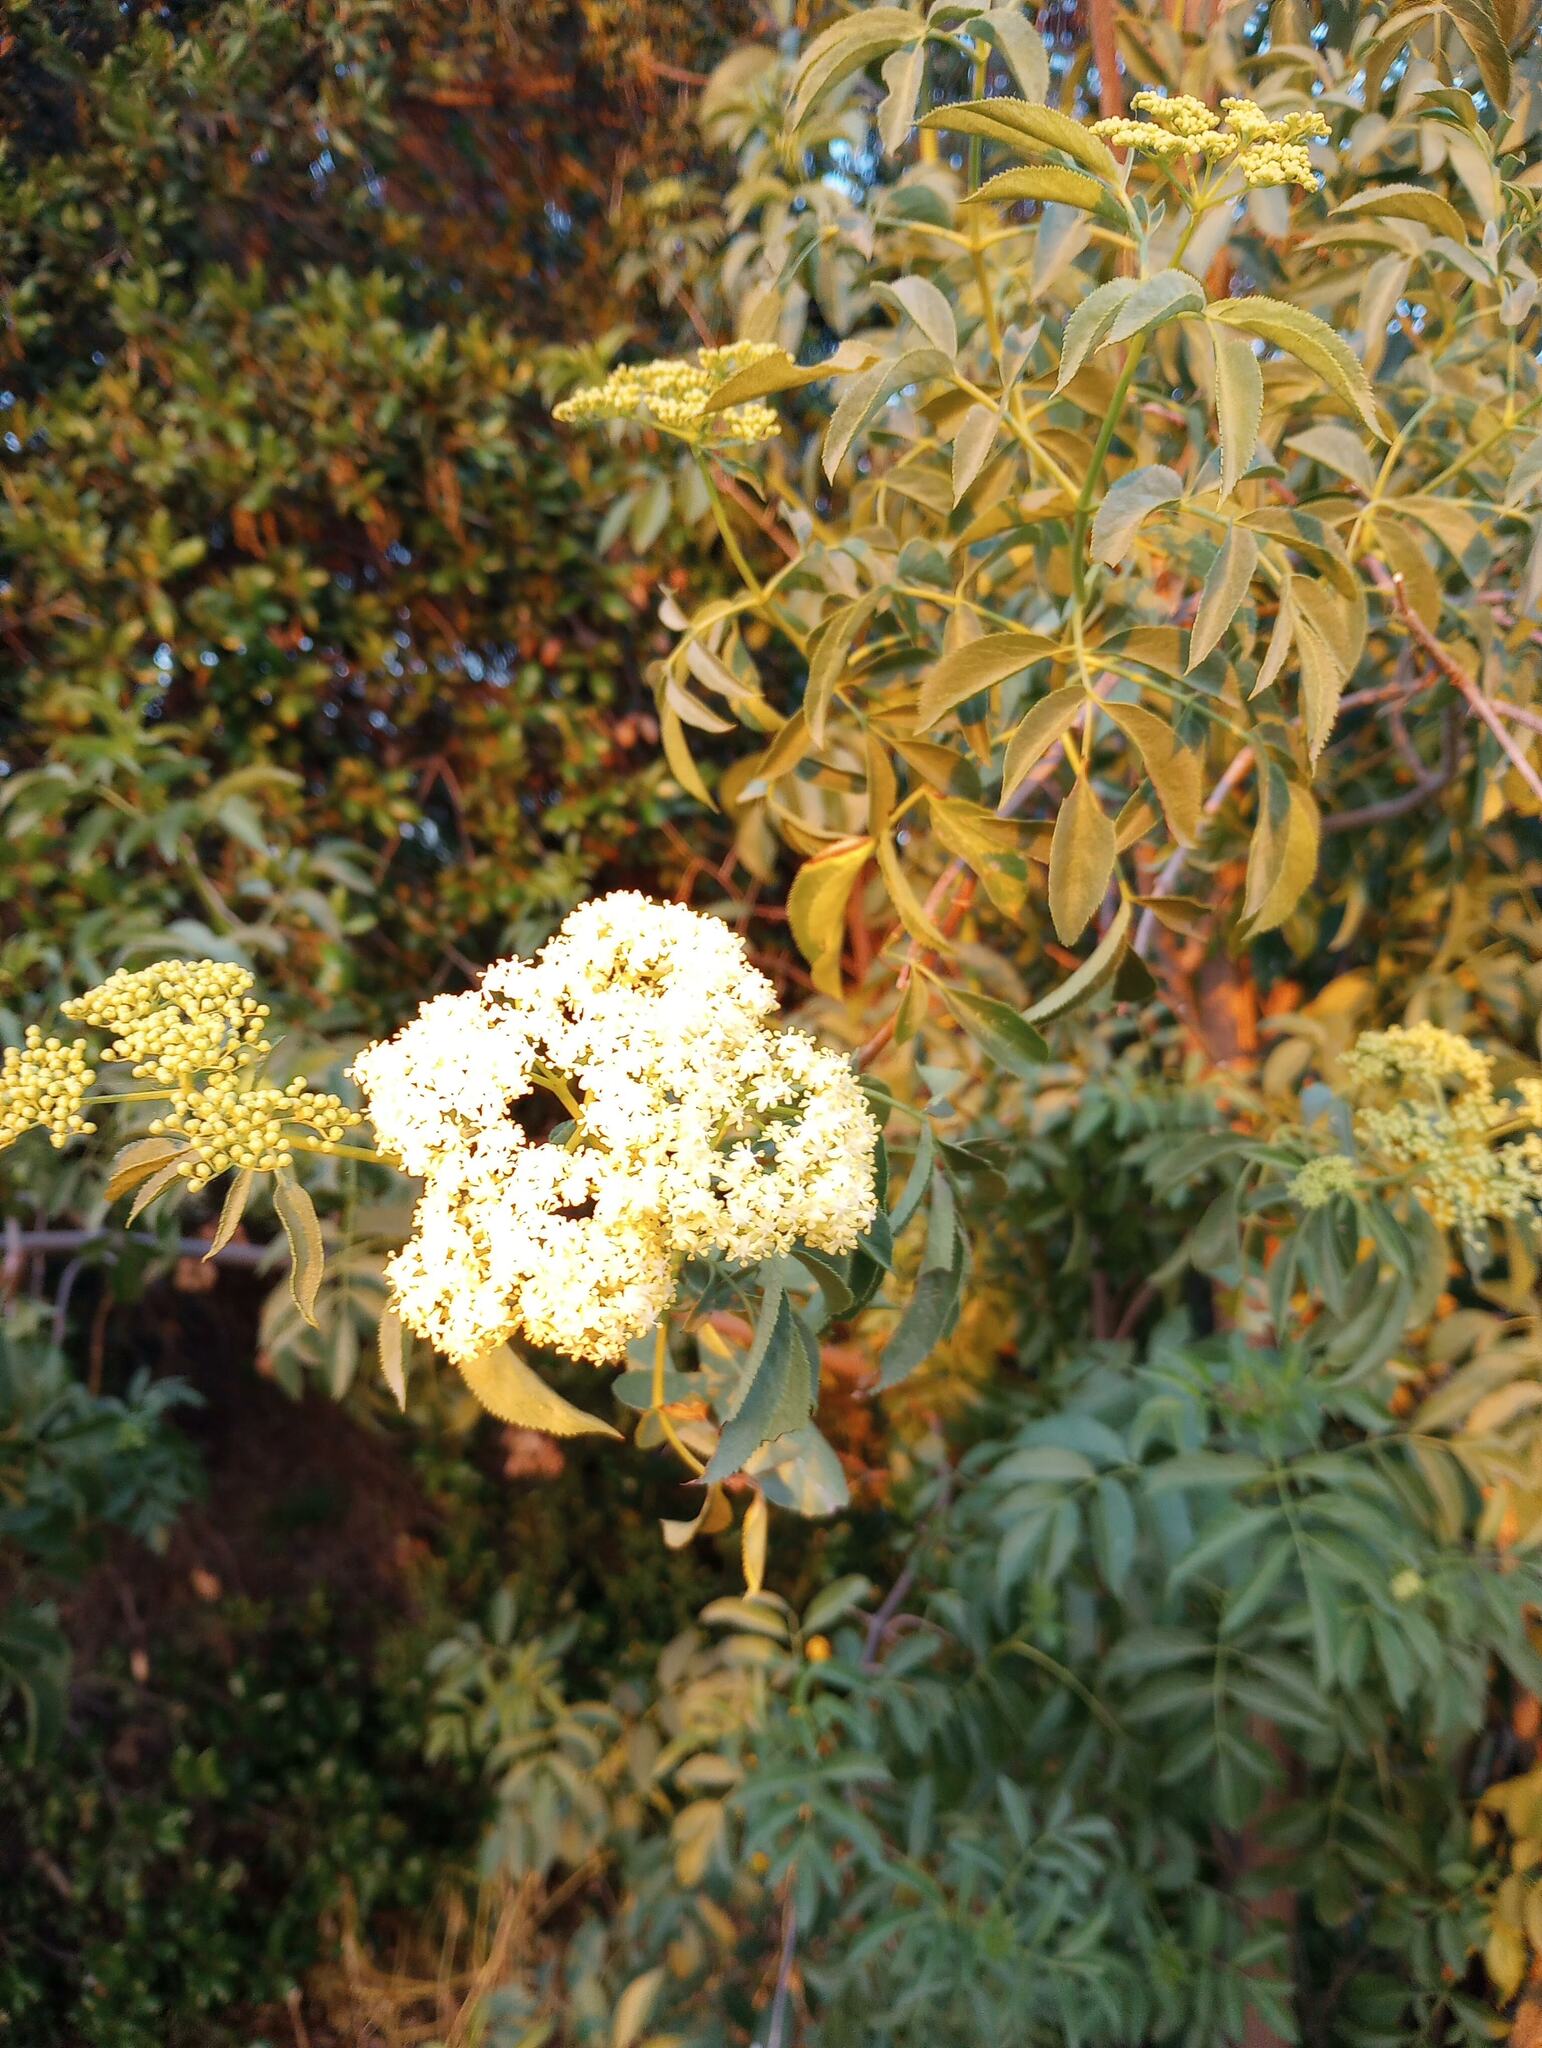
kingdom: Plantae
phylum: Tracheophyta
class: Magnoliopsida
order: Dipsacales
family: Viburnaceae
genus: Sambucus
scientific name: Sambucus cerulea
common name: Blue elder
